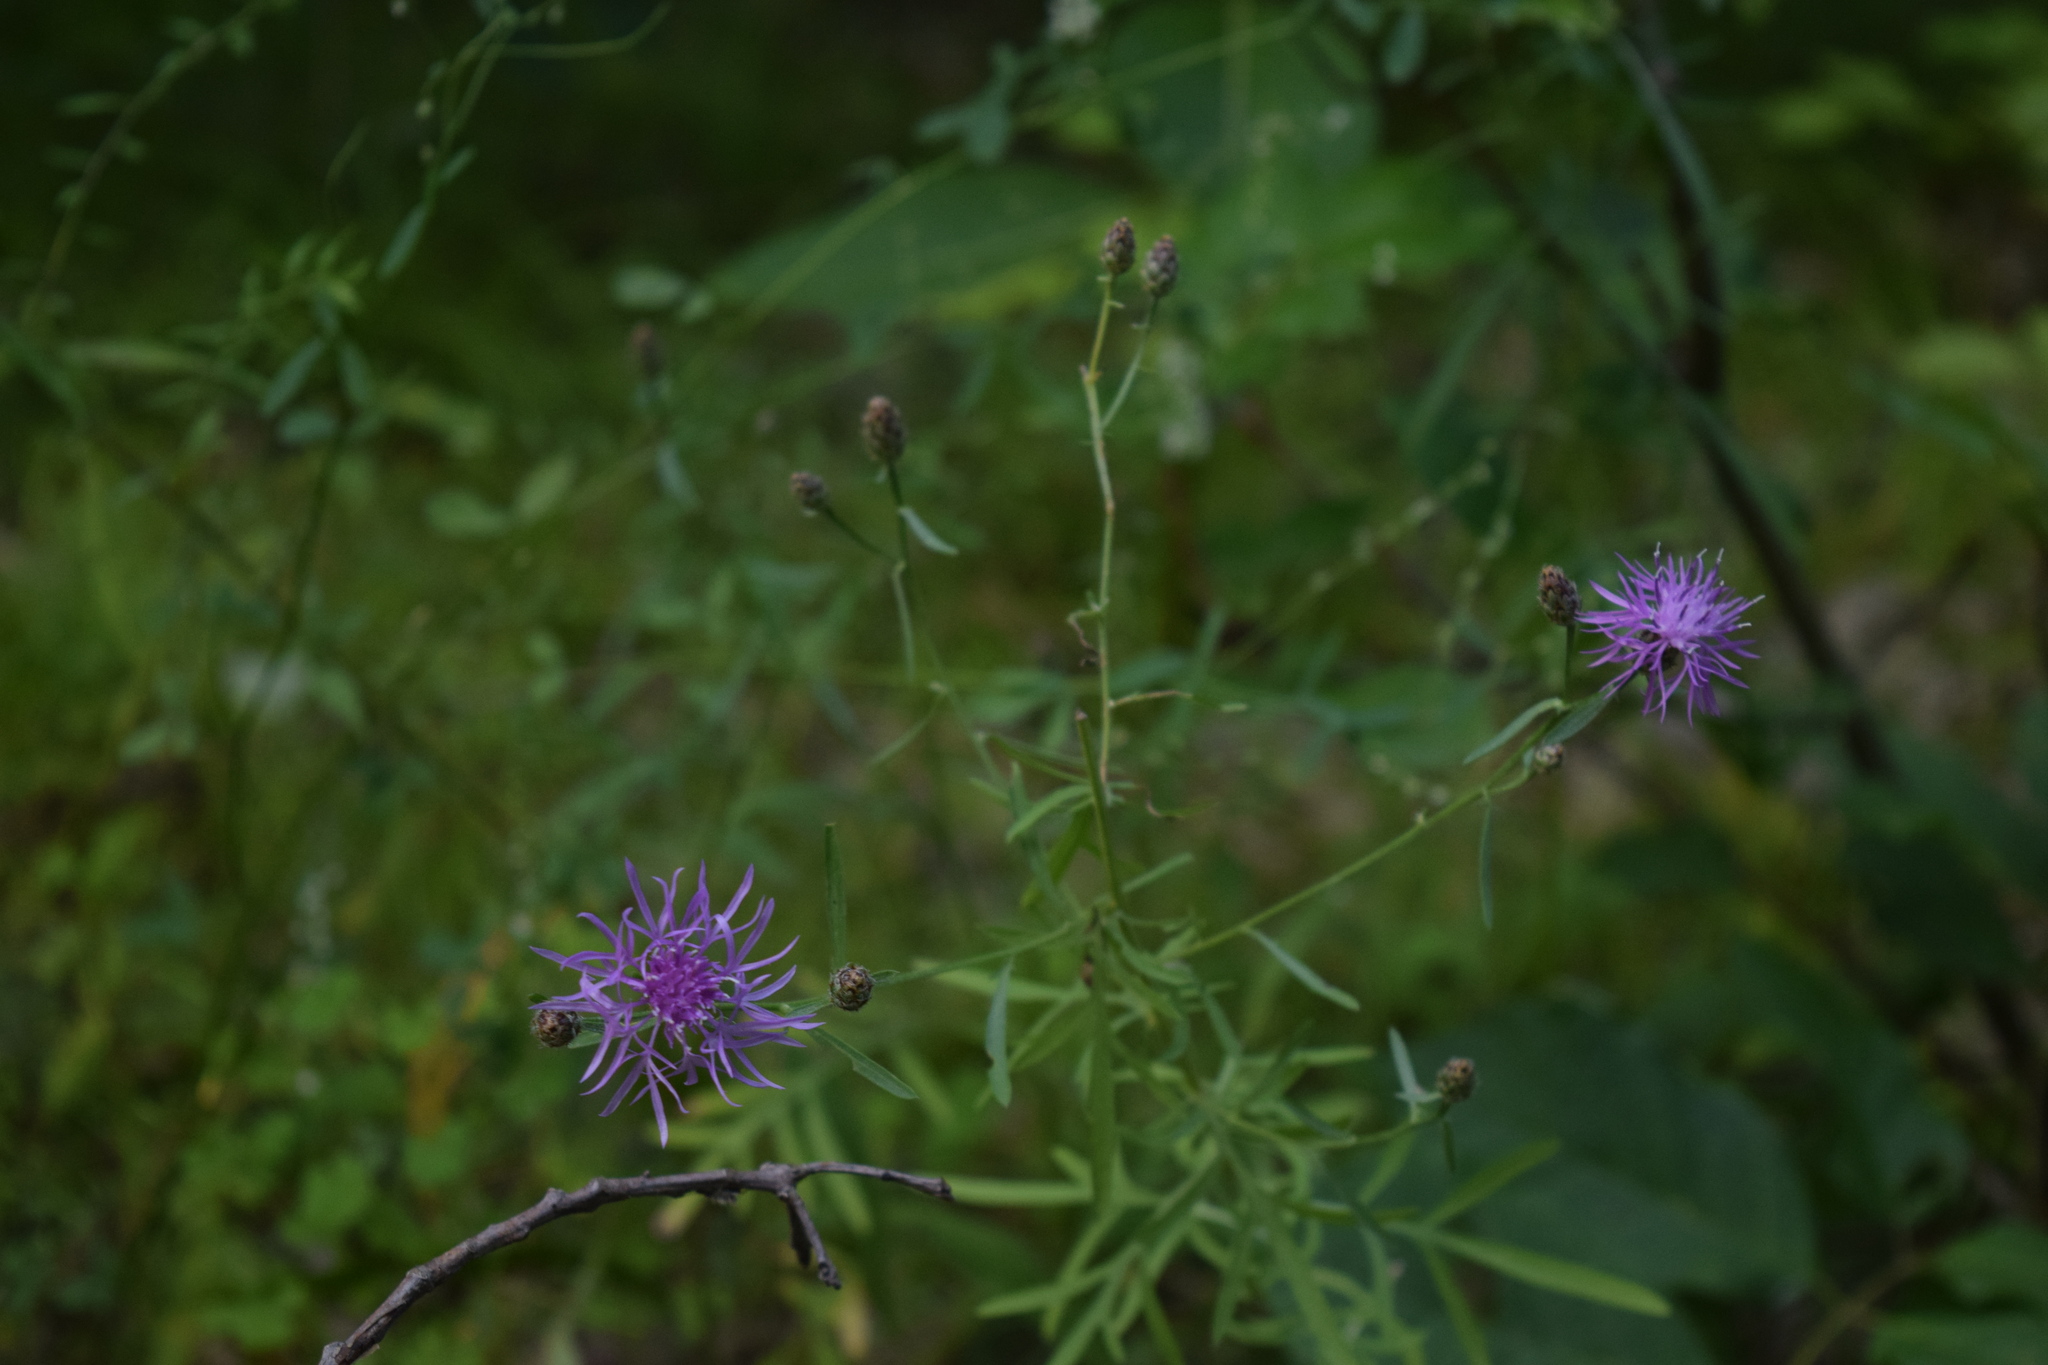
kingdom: Plantae
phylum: Tracheophyta
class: Magnoliopsida
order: Asterales
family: Asteraceae
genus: Centaurea
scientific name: Centaurea stoebe
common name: Spotted knapweed
